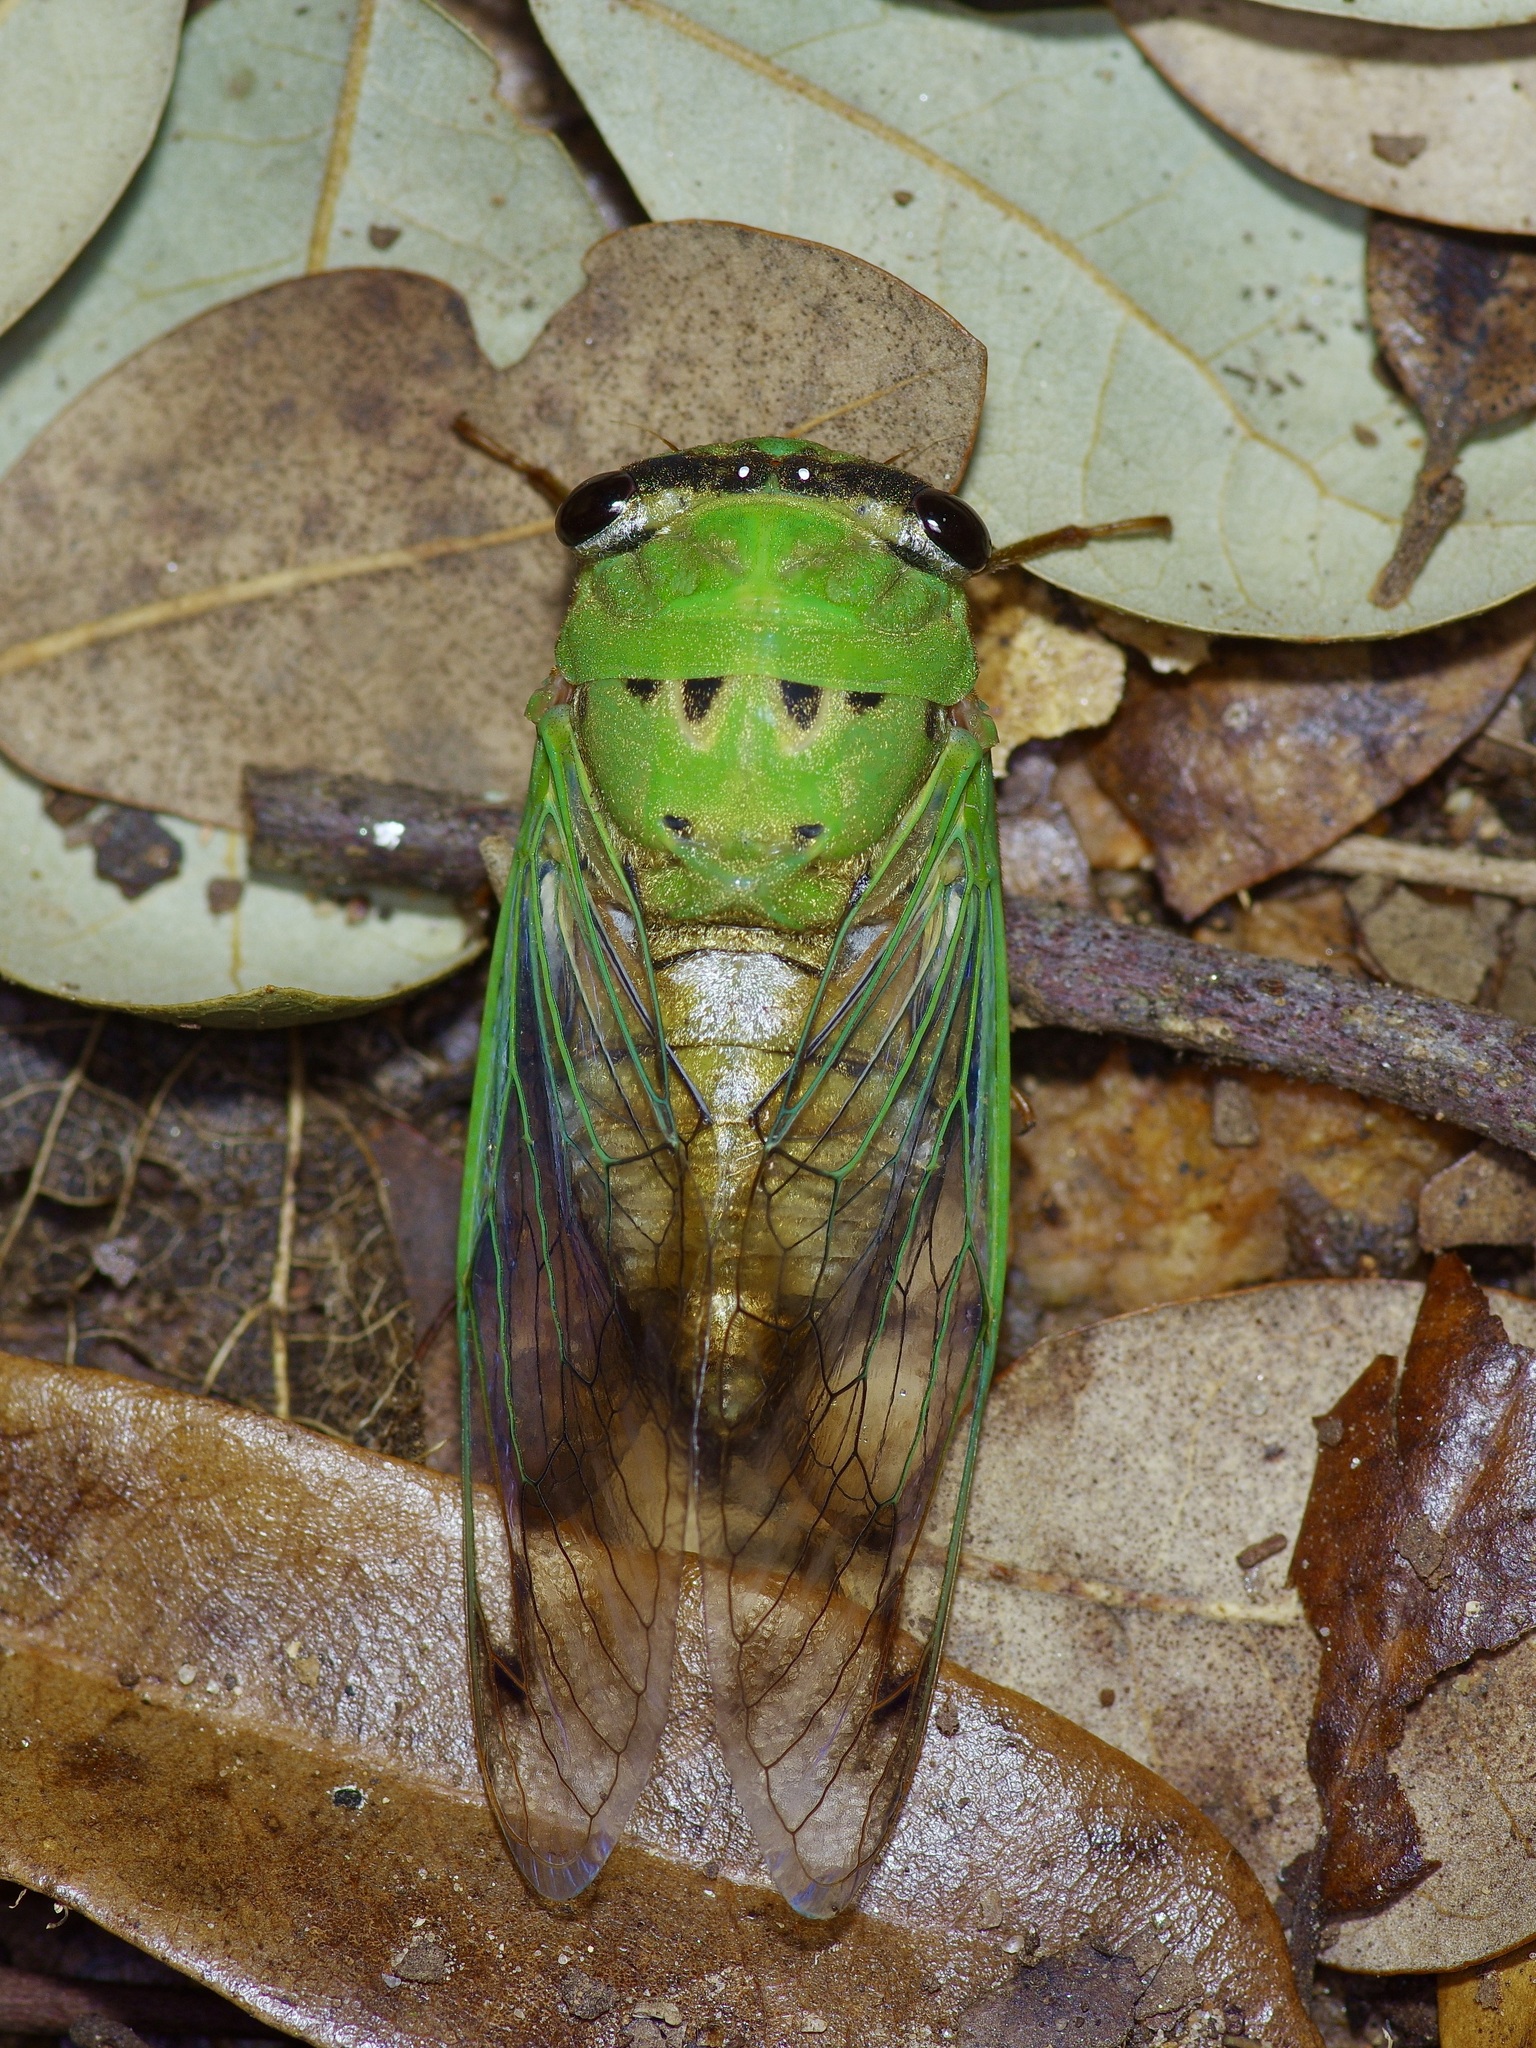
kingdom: Animalia
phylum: Arthropoda
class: Insecta
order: Hemiptera
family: Cicadidae
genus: Neotibicen
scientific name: Neotibicen superbus
